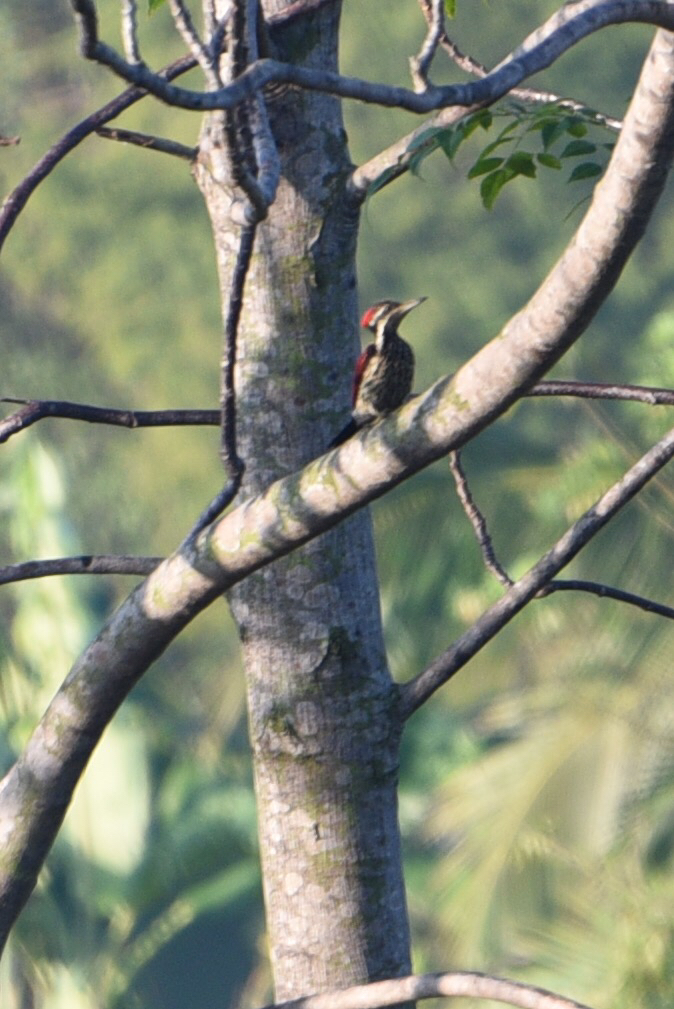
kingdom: Animalia
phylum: Chordata
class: Aves
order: Piciformes
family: Picidae
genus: Dinopium
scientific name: Dinopium psarodes
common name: Red-backed flameback
